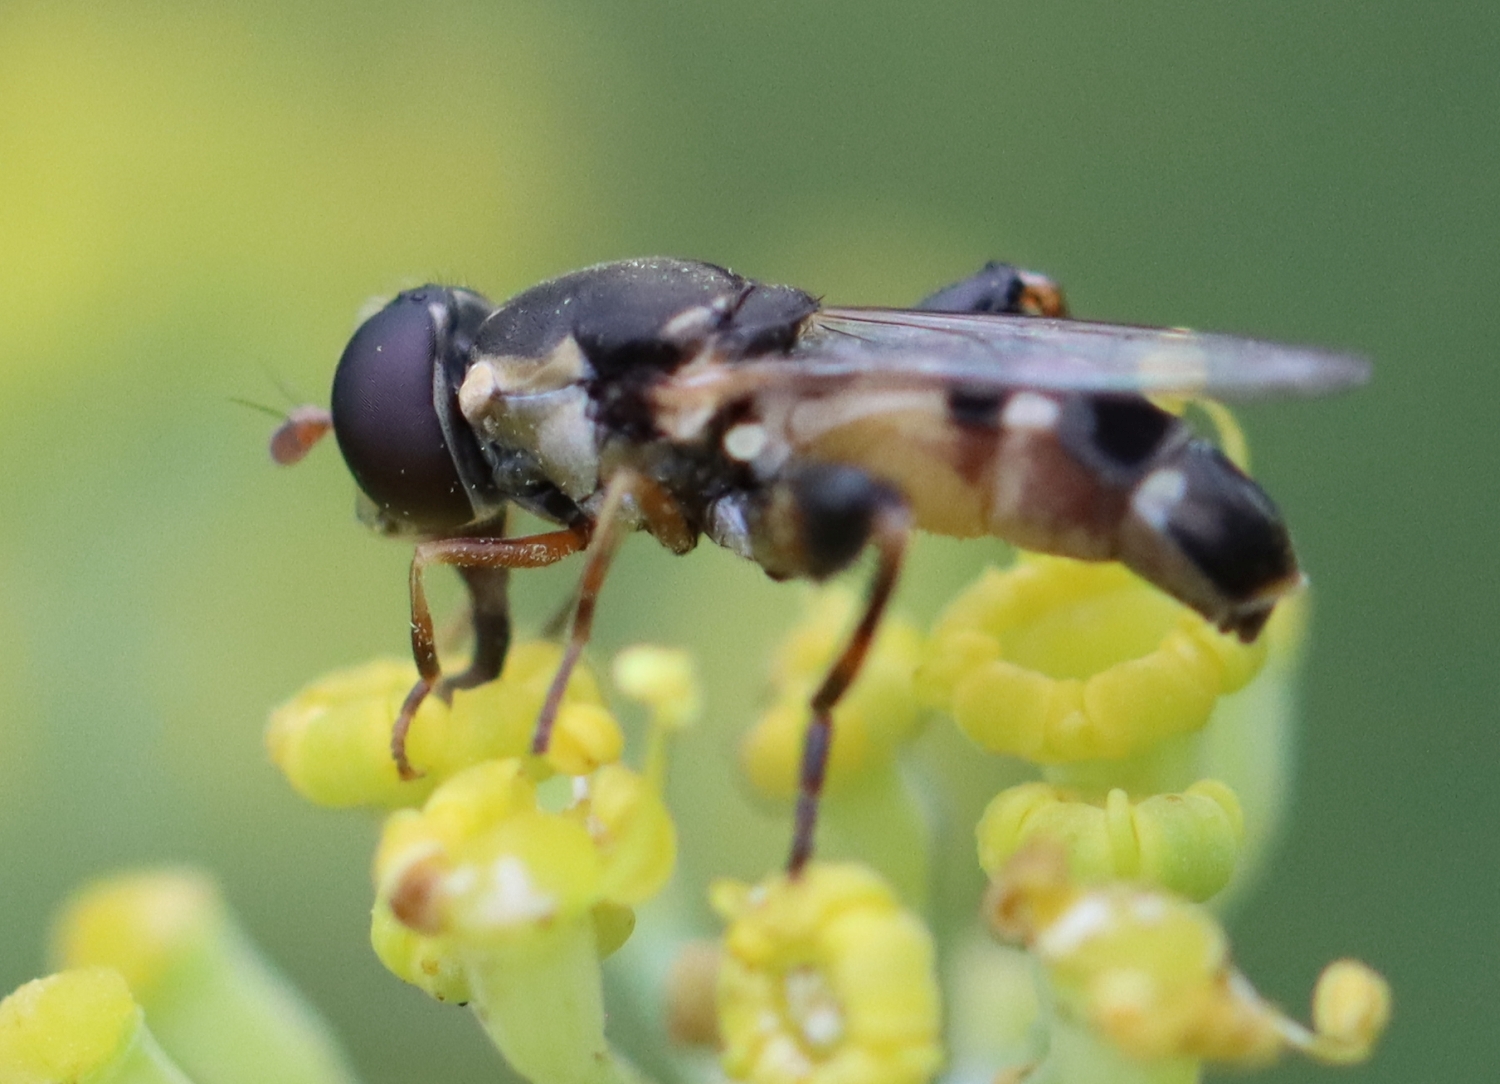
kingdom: Animalia
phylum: Arthropoda
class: Insecta
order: Diptera
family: Syrphidae
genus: Syritta
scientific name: Syritta pipiens
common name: Hover fly
